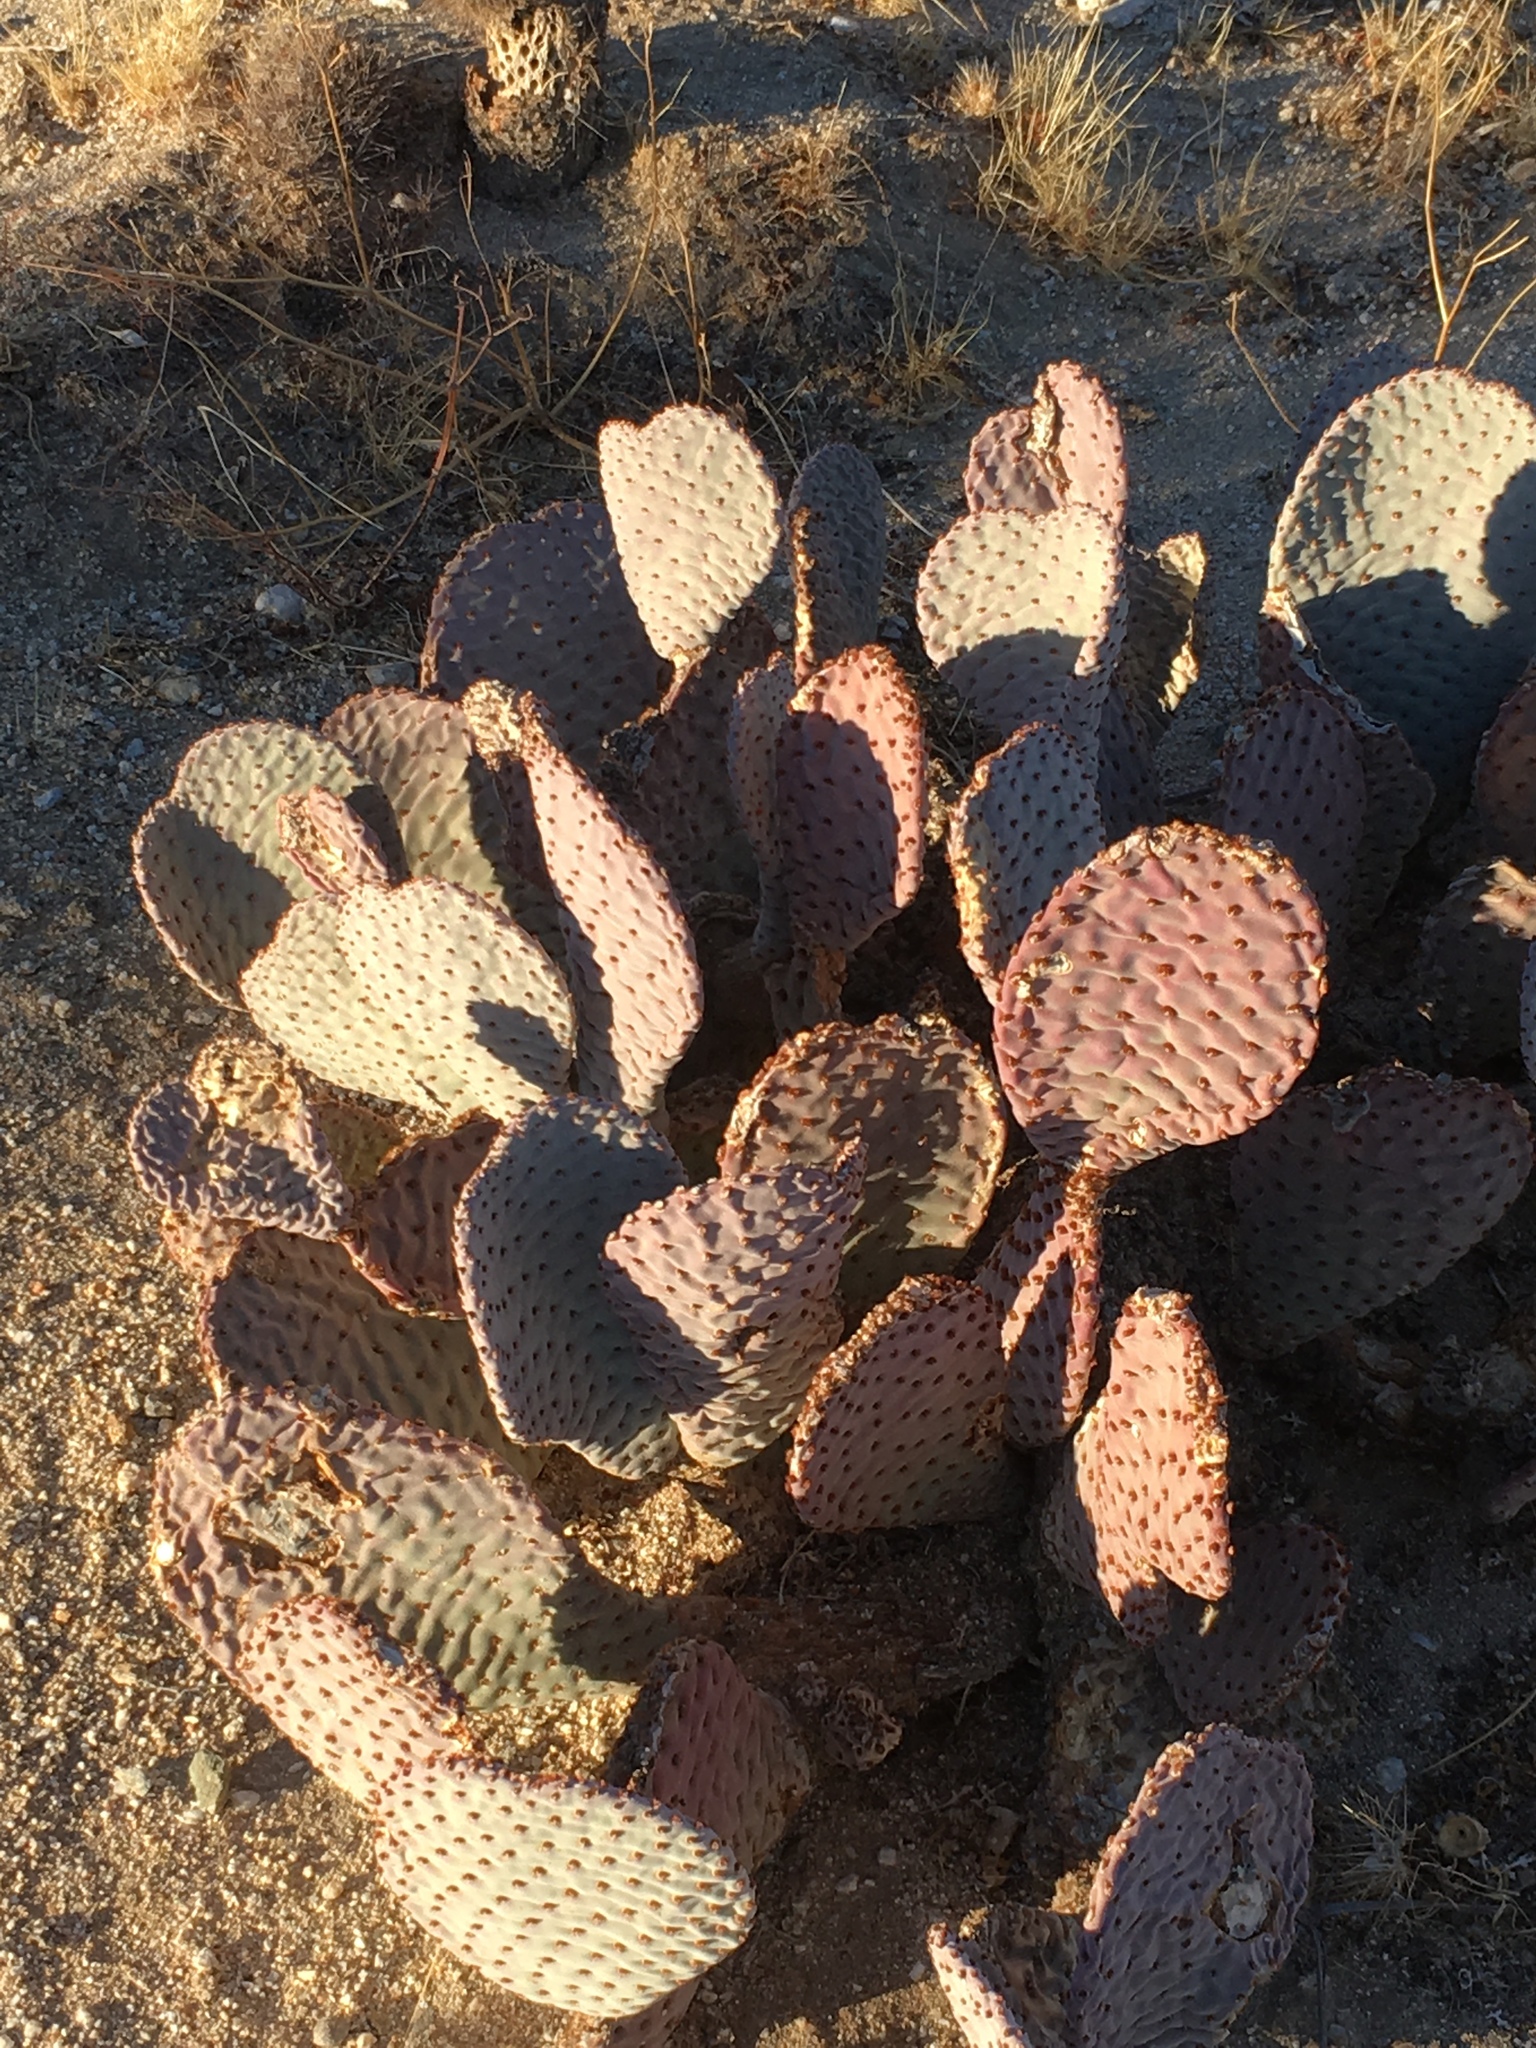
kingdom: Plantae
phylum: Tracheophyta
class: Magnoliopsida
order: Caryophyllales
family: Cactaceae
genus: Opuntia
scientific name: Opuntia basilaris
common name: Beavertail prickly-pear
